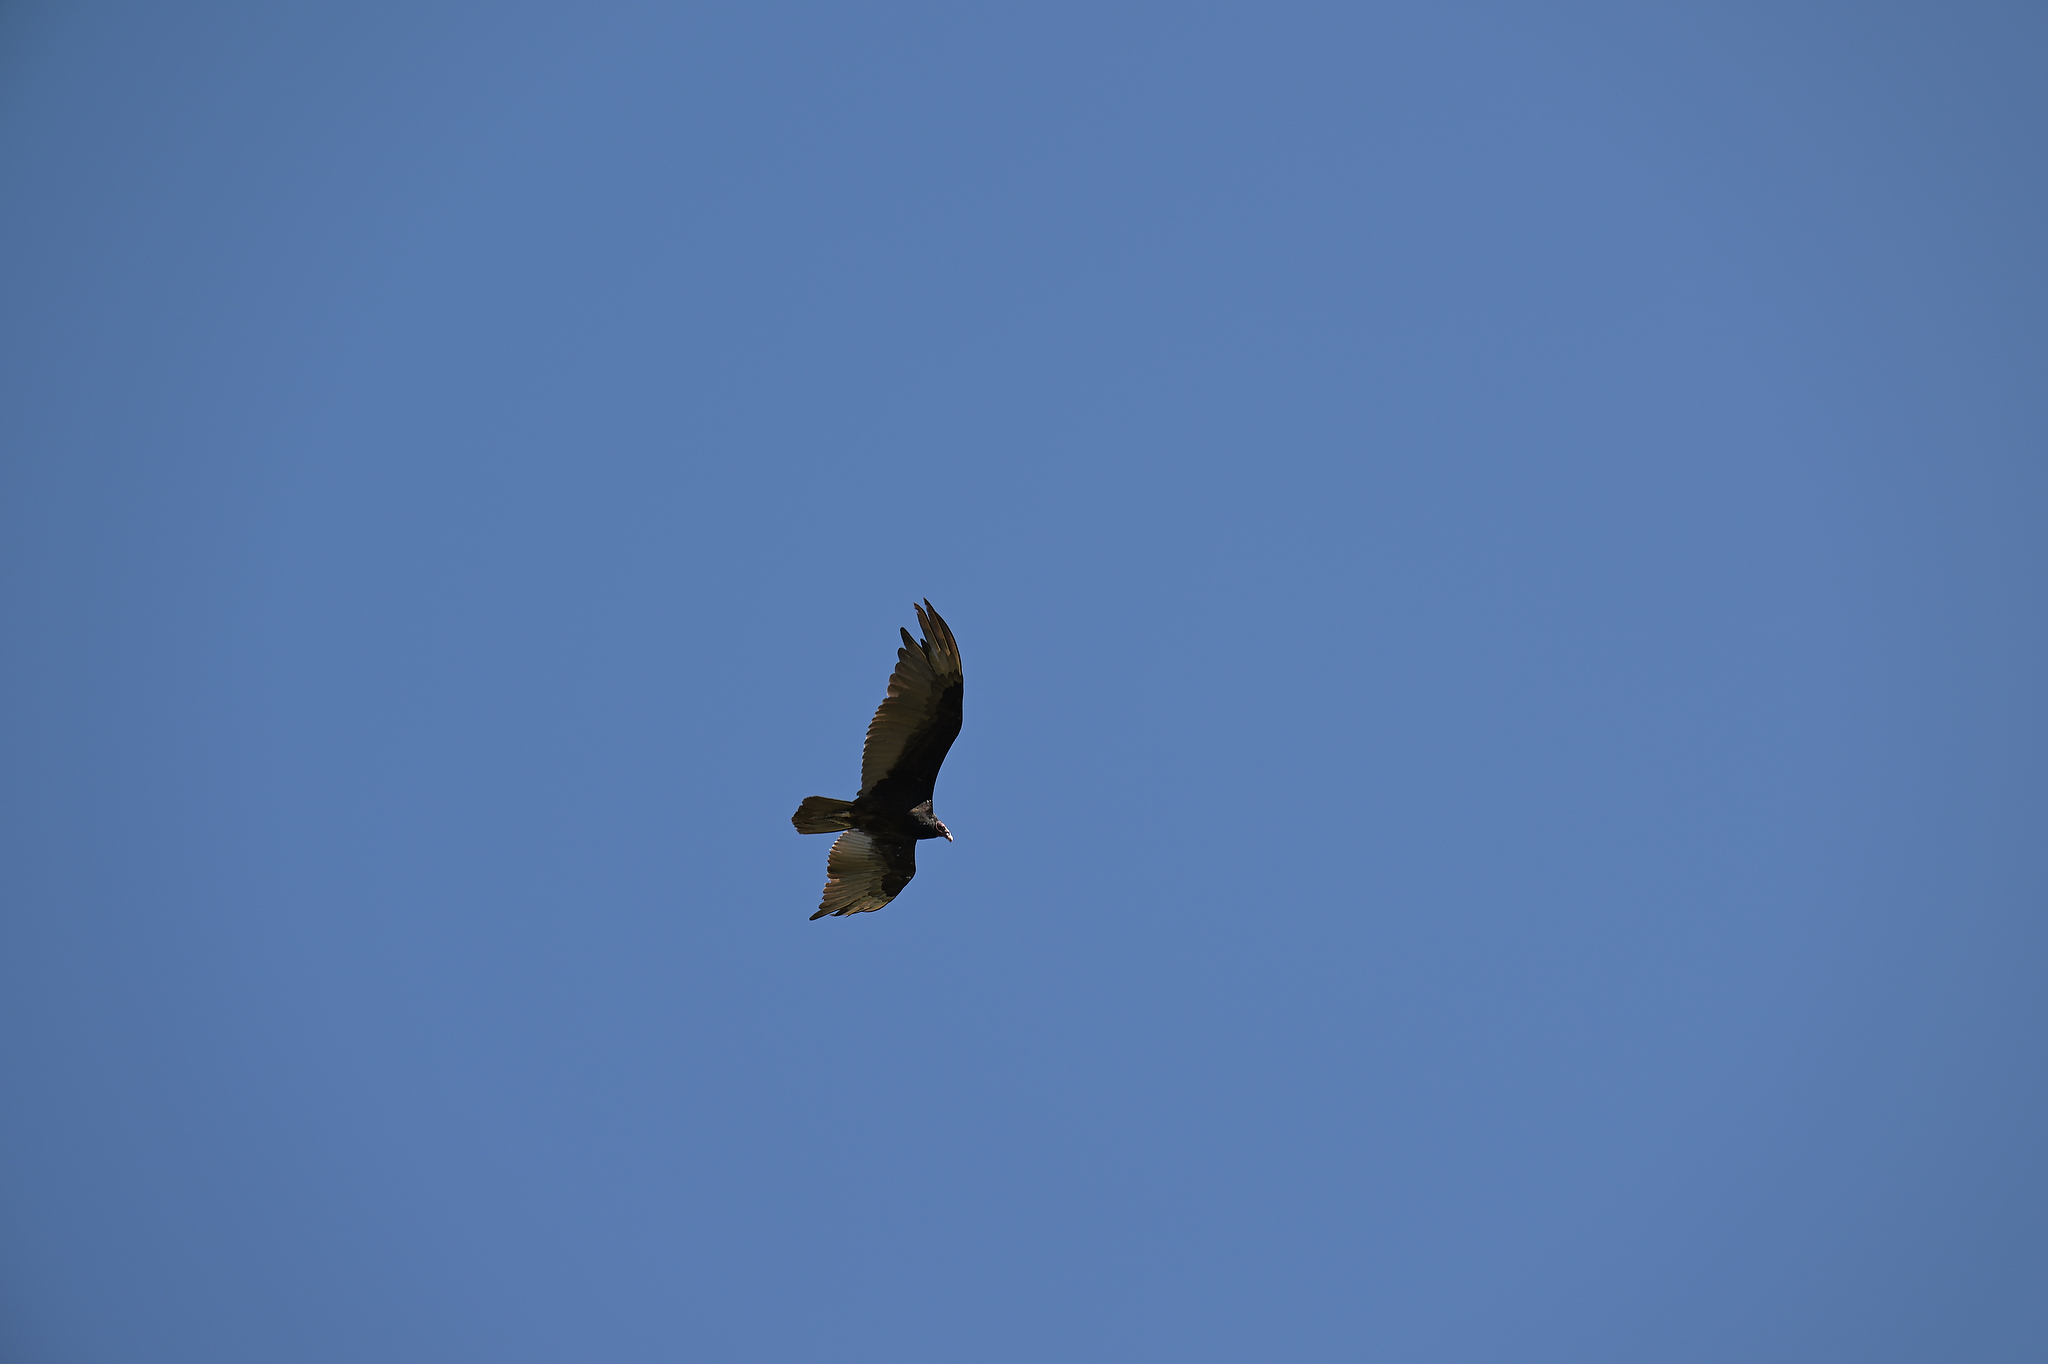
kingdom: Animalia
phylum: Chordata
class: Aves
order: Accipitriformes
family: Cathartidae
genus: Cathartes
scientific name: Cathartes aura
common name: Turkey vulture
